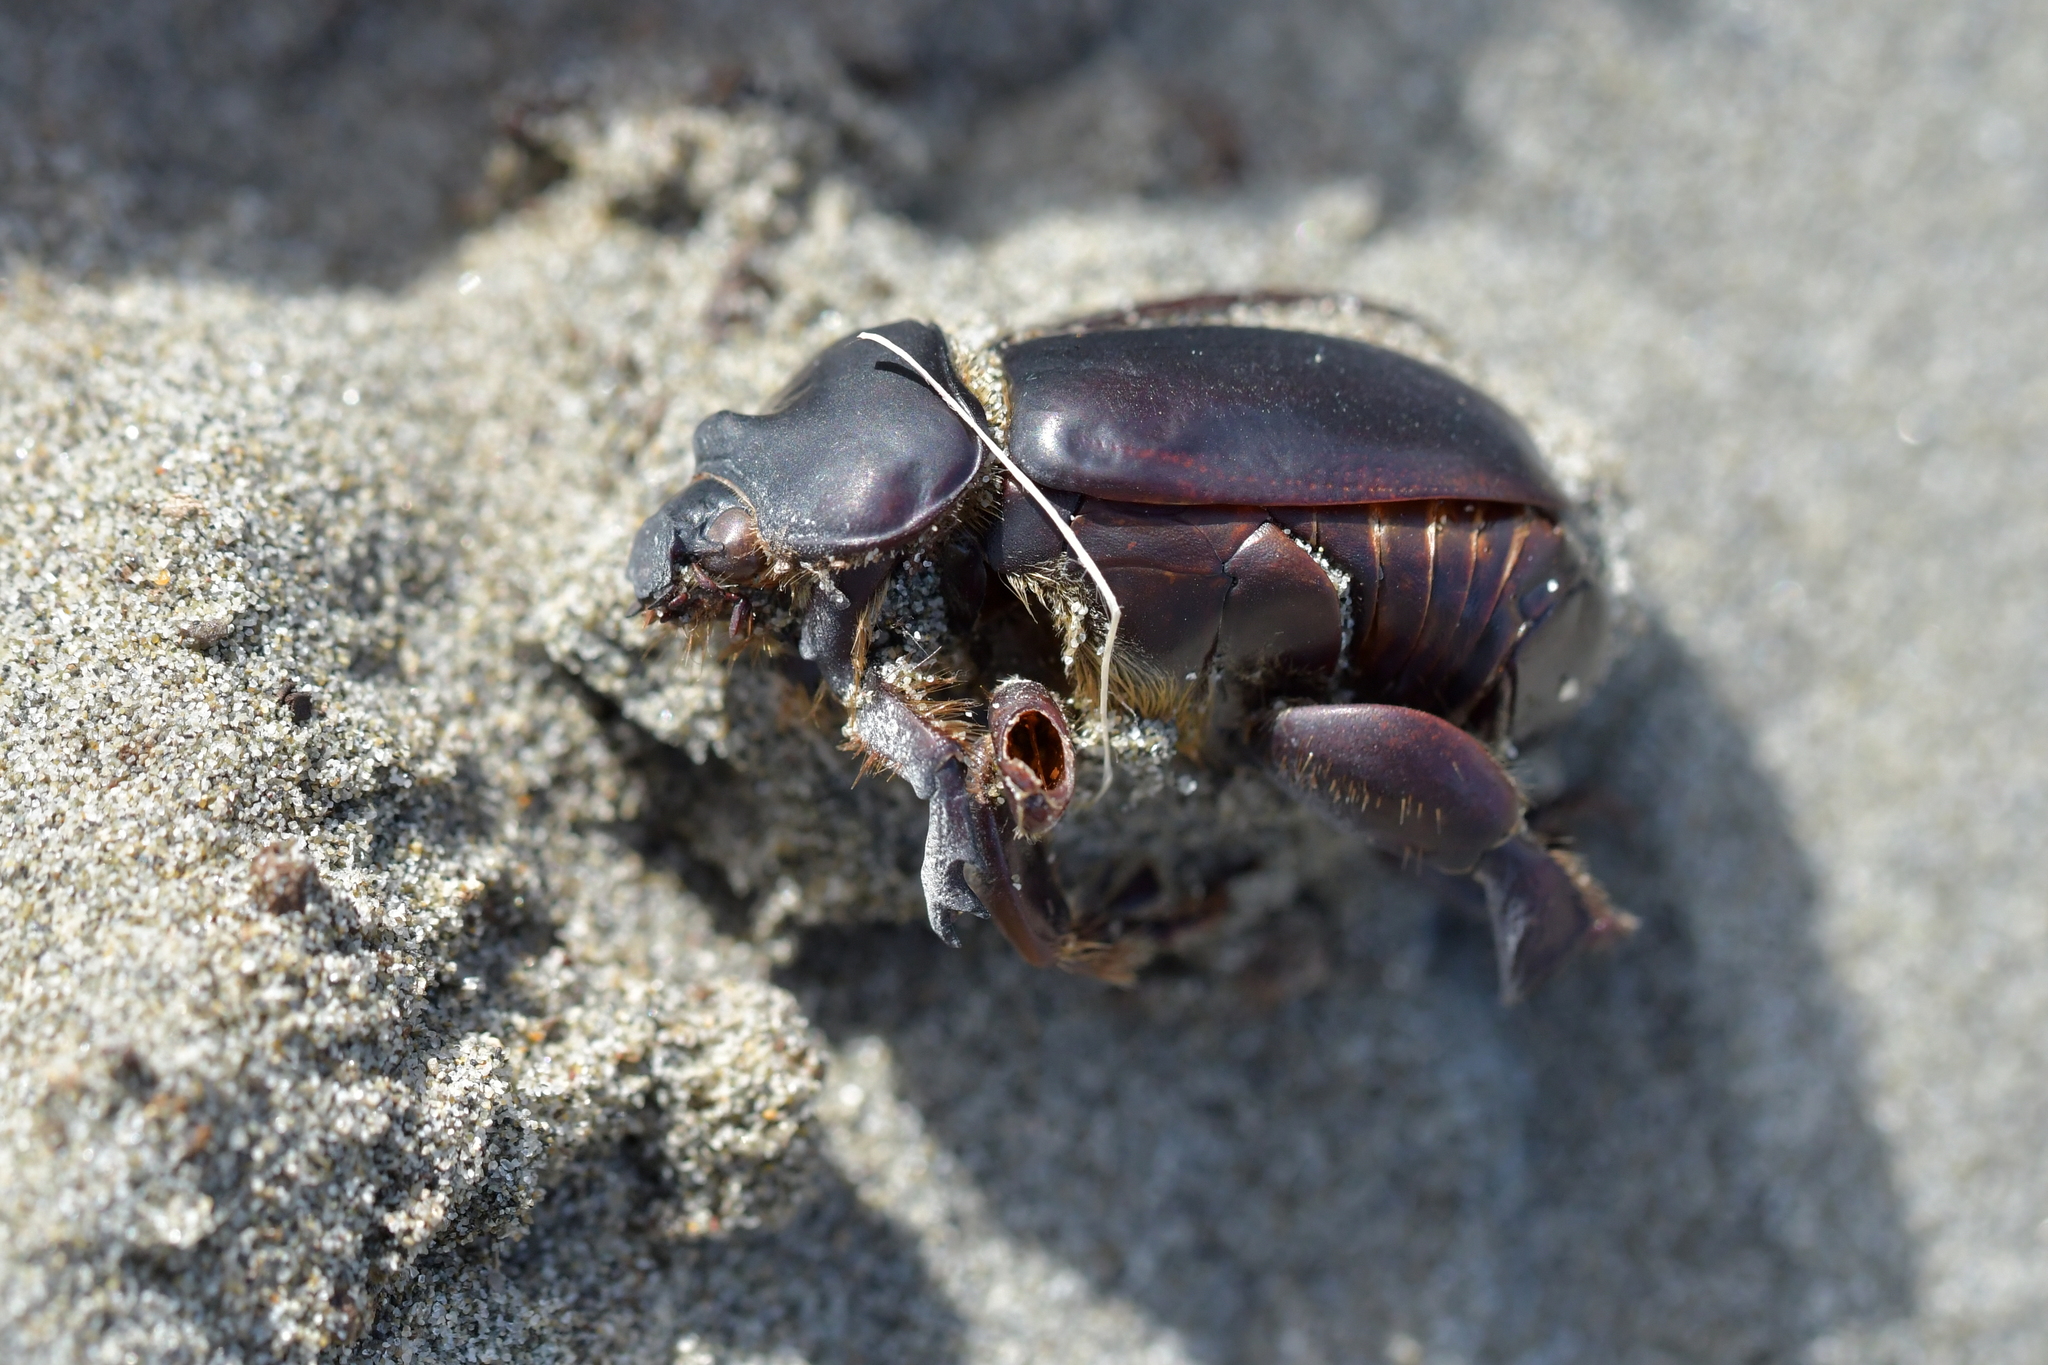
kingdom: Animalia
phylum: Arthropoda
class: Insecta
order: Coleoptera
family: Scarabaeidae
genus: Pericoptus
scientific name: Pericoptus truncatus
